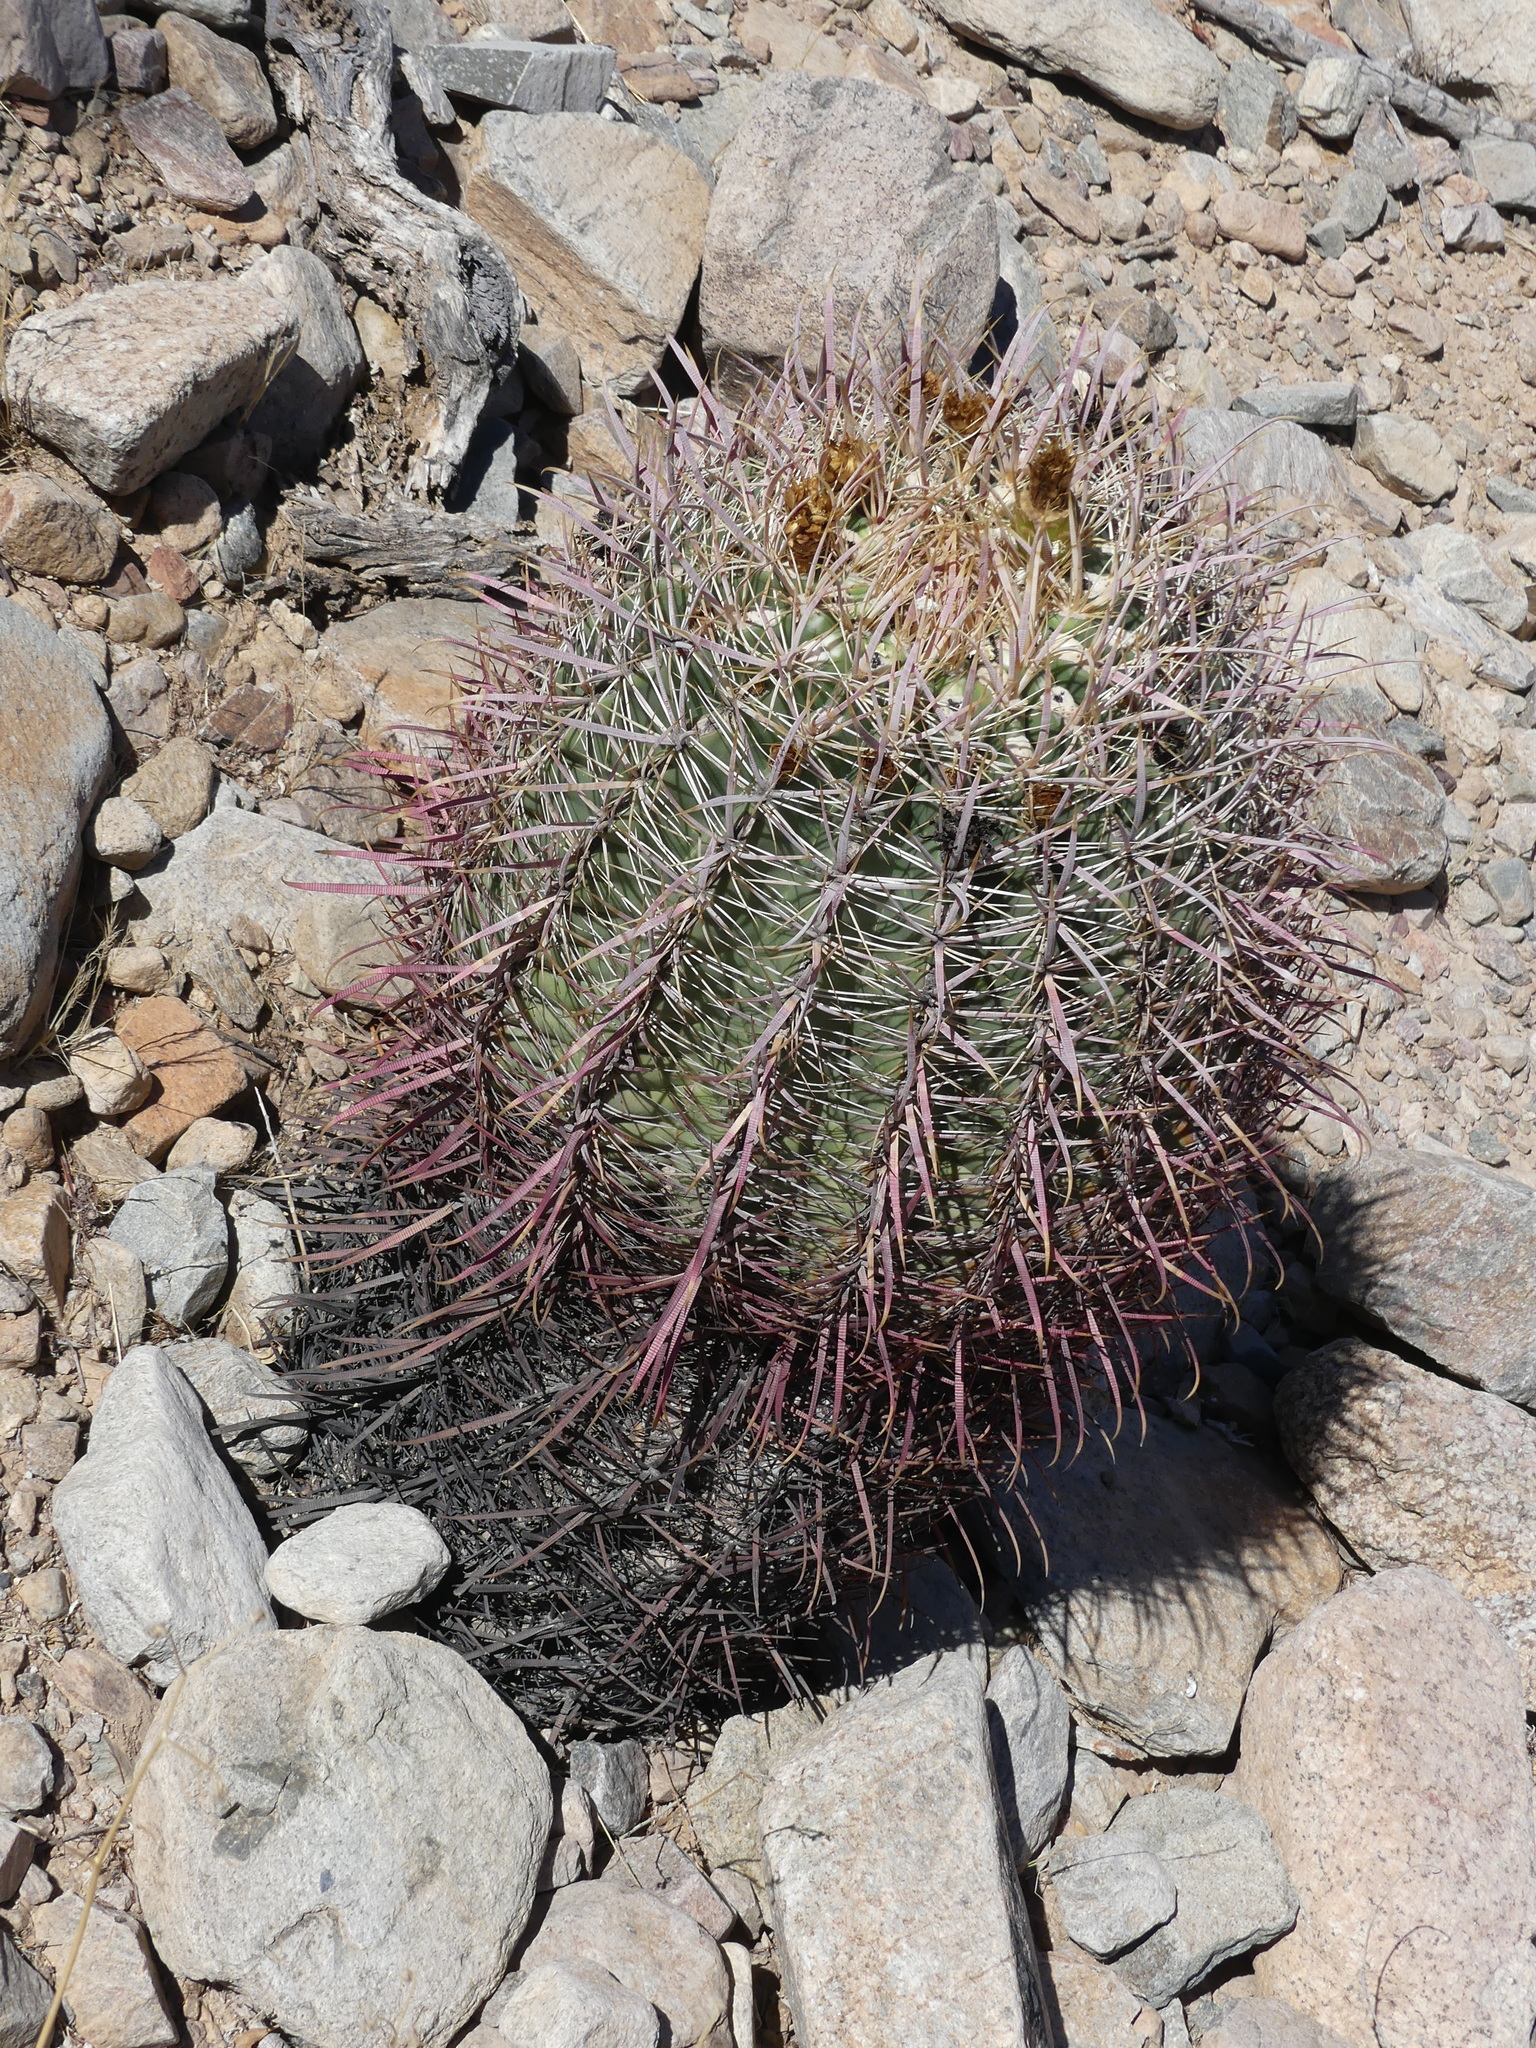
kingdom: Plantae
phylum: Tracheophyta
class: Magnoliopsida
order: Caryophyllales
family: Cactaceae
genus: Ferocactus
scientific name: Ferocactus cylindraceus
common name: California barrel cactus
